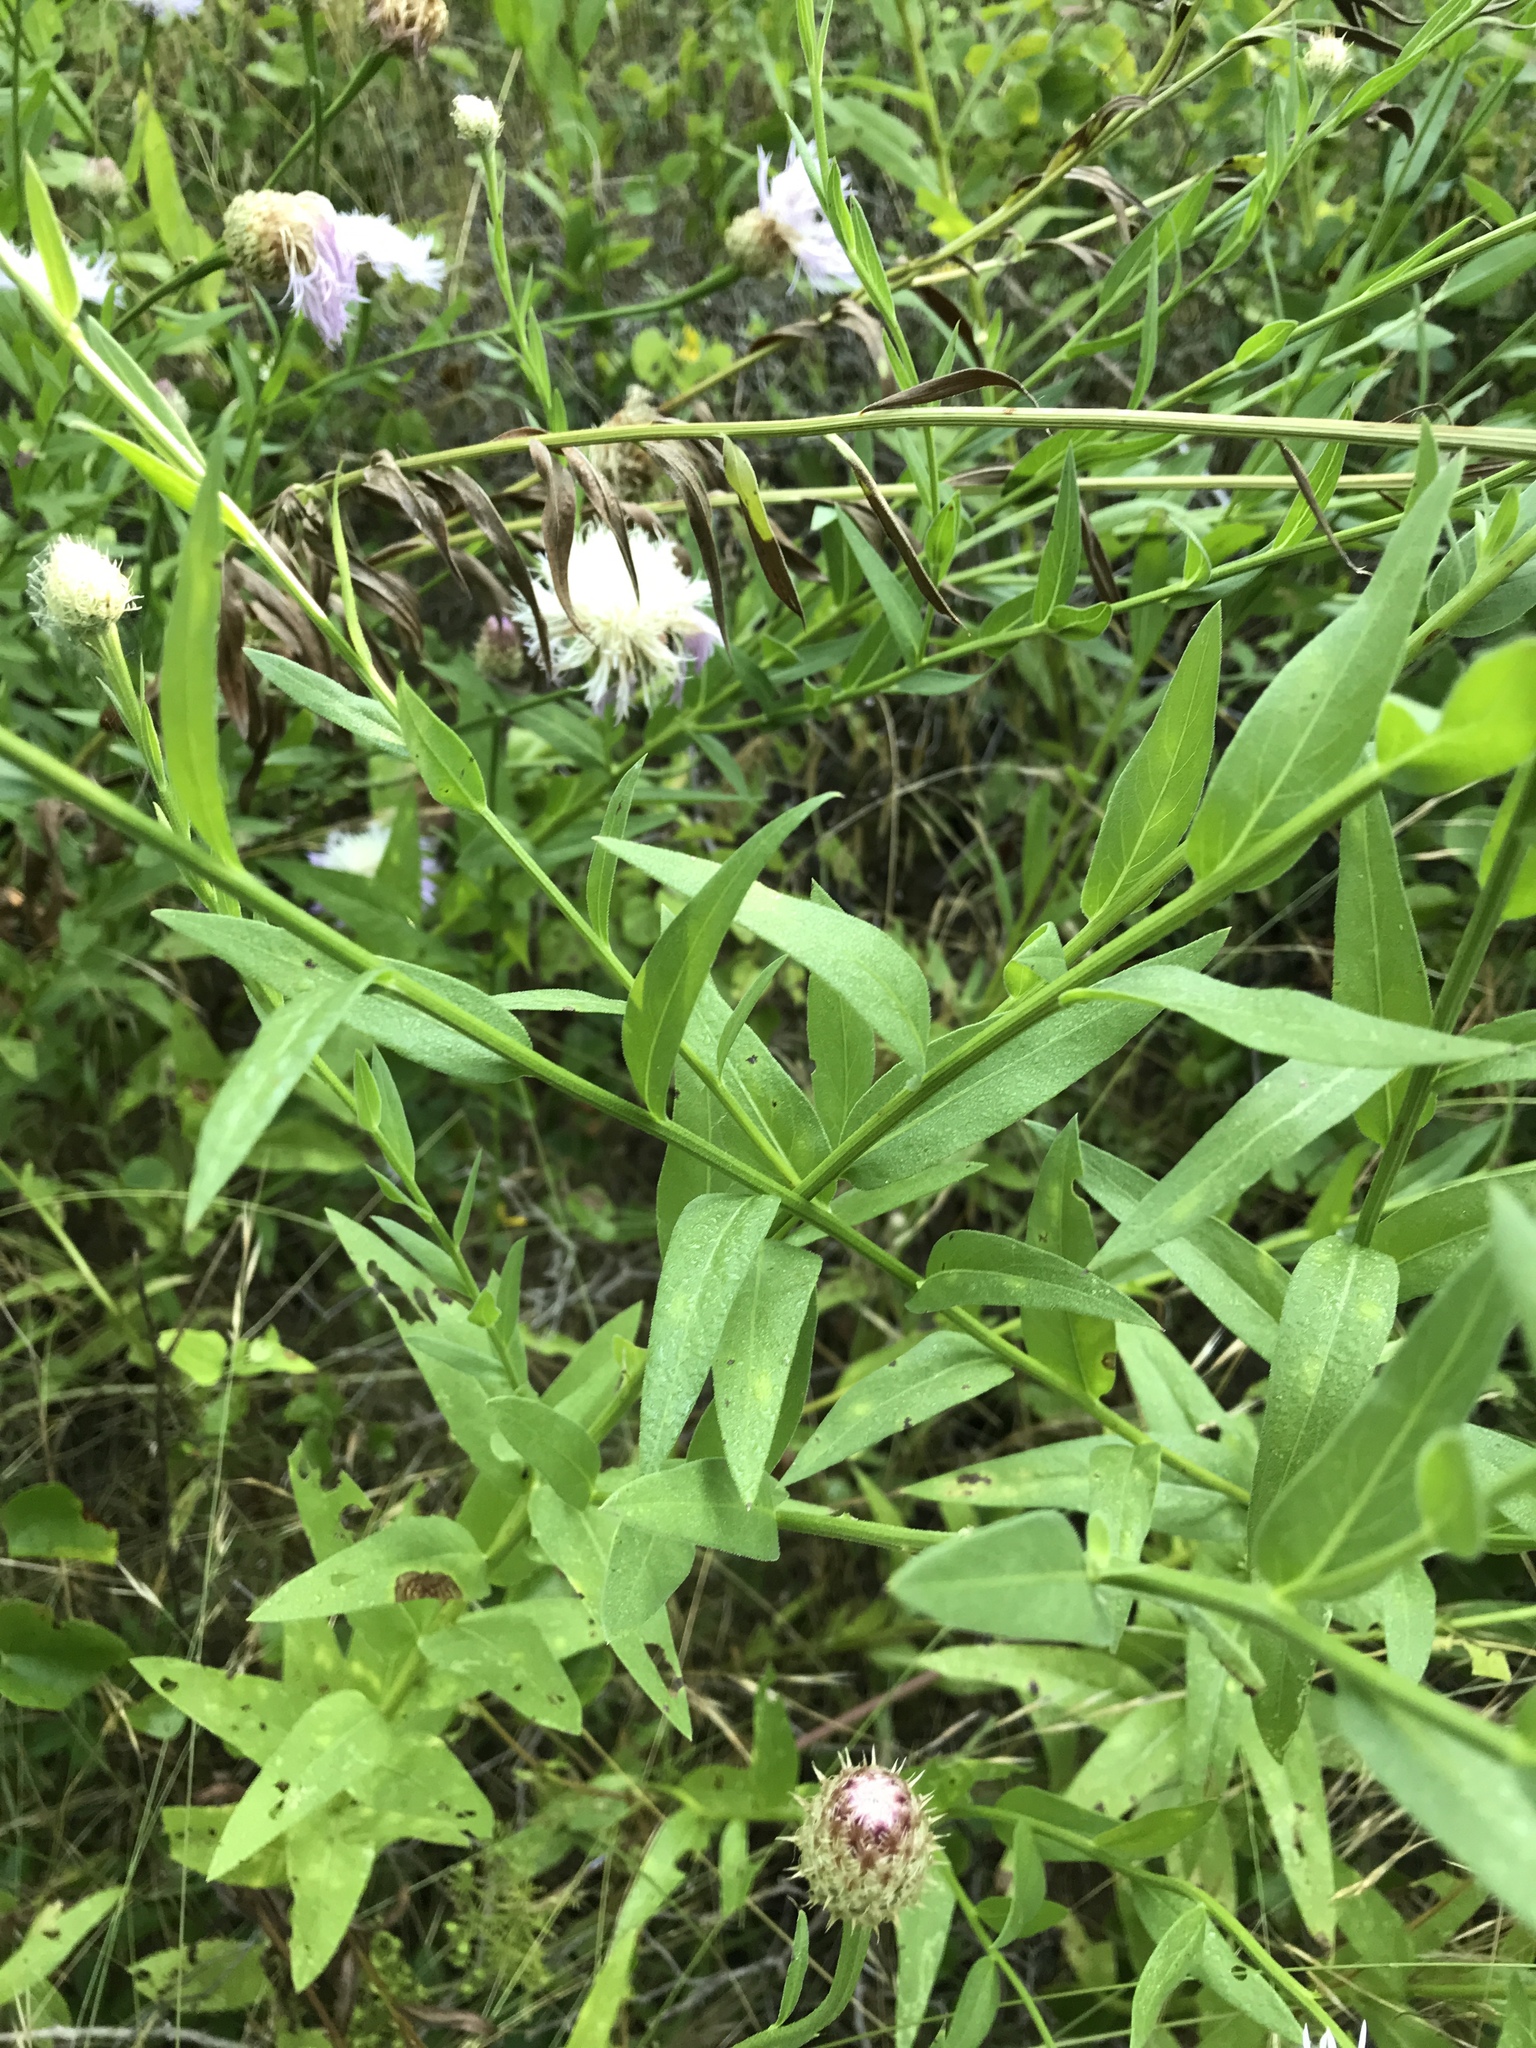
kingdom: Plantae
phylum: Tracheophyta
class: Magnoliopsida
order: Asterales
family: Asteraceae
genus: Plectocephalus
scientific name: Plectocephalus americanus
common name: American basket-flower
